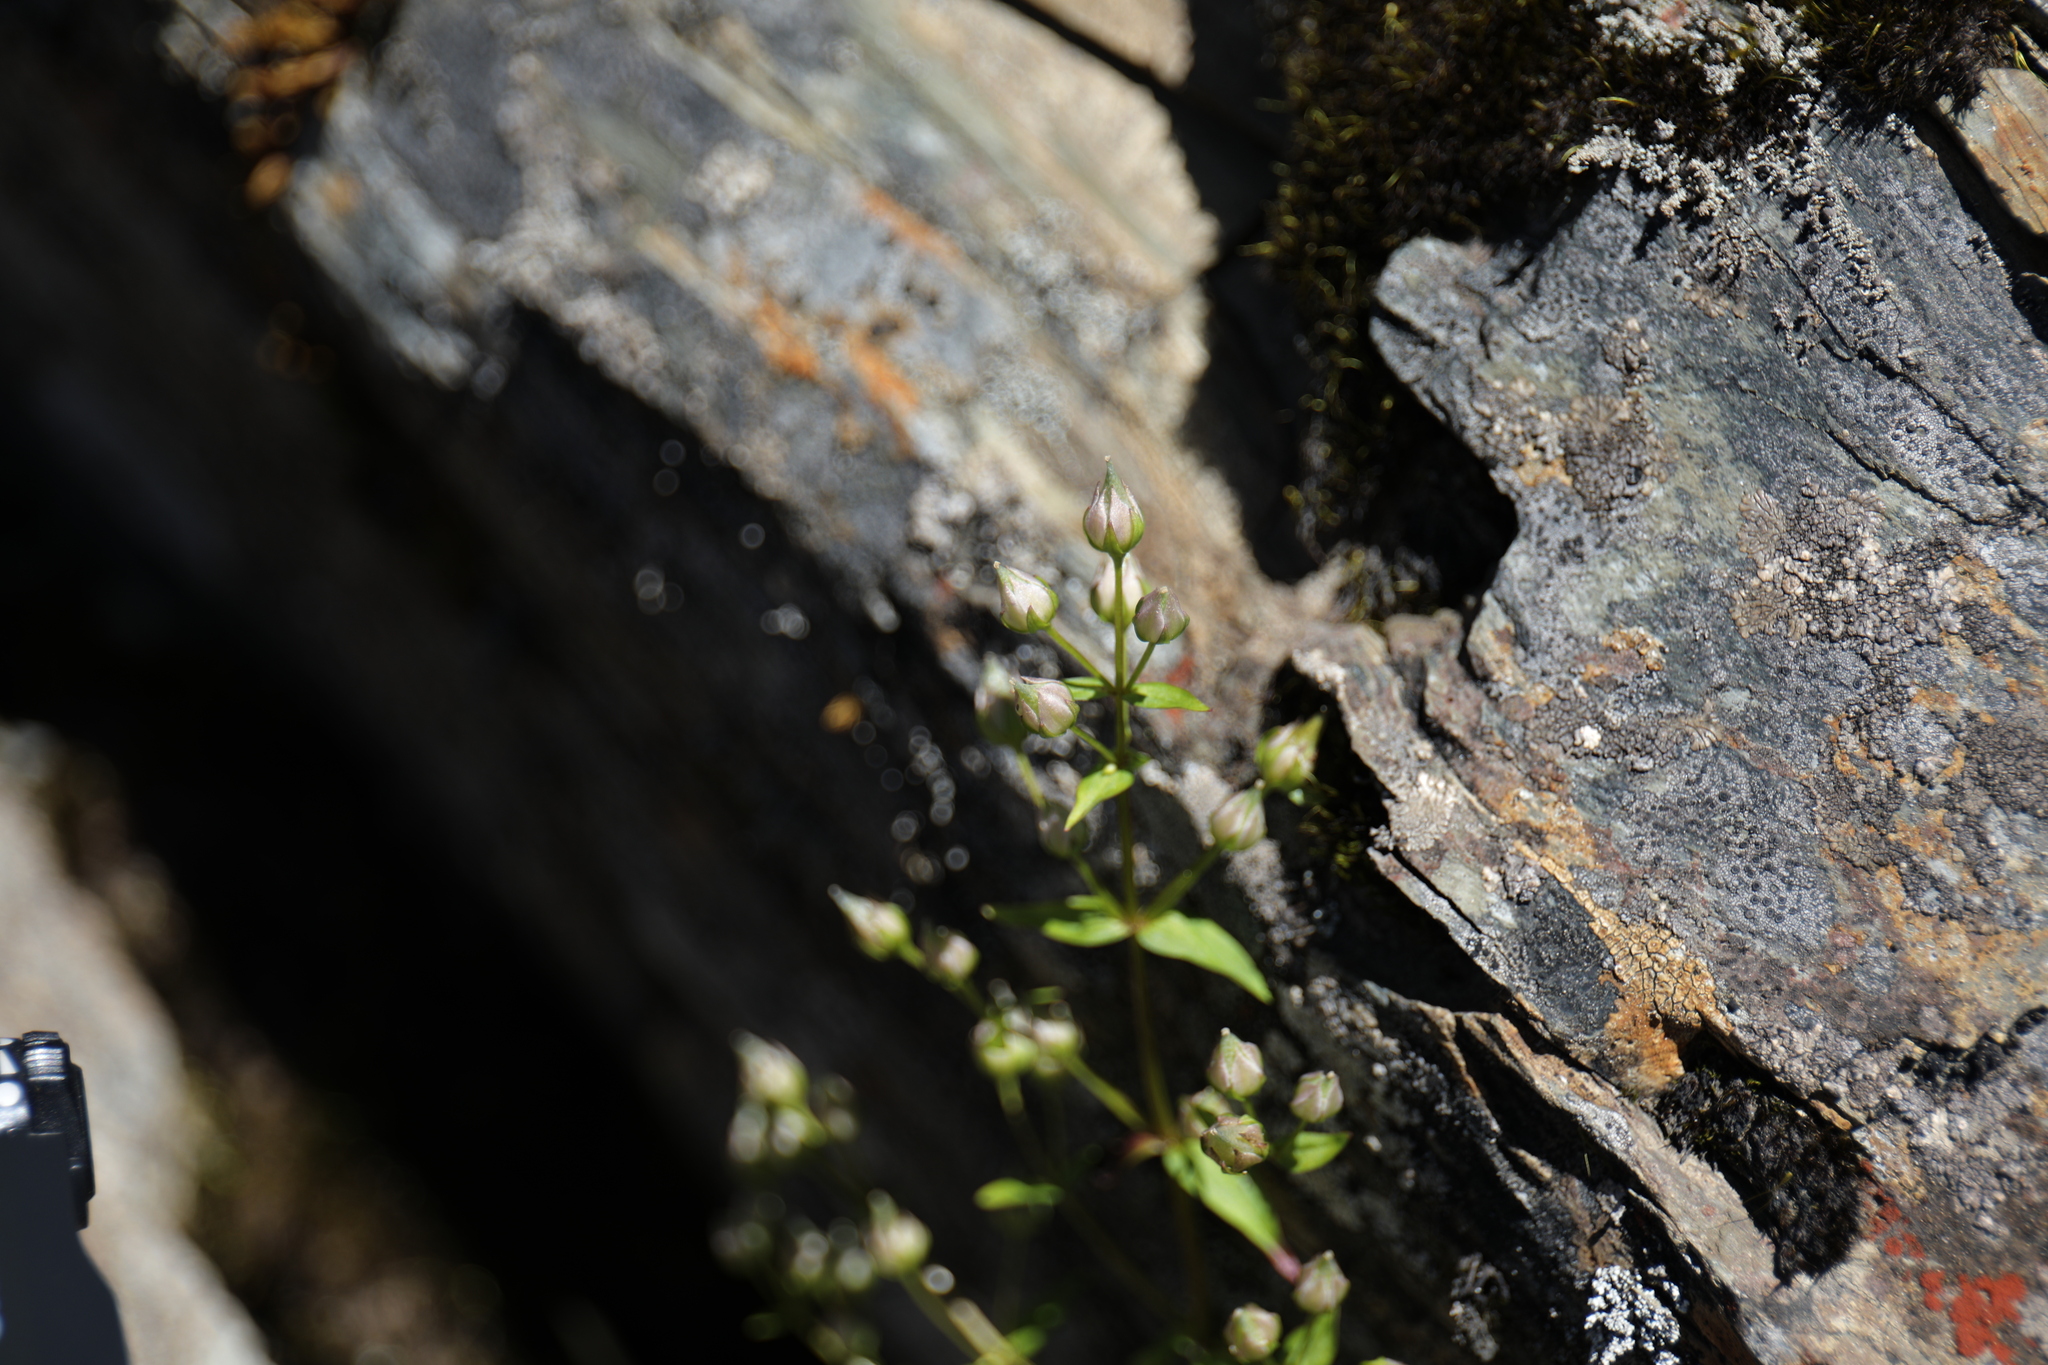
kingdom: Plantae
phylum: Tracheophyta
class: Magnoliopsida
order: Gentianales
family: Gentianaceae
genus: Swertia
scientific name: Swertia macrosperma
